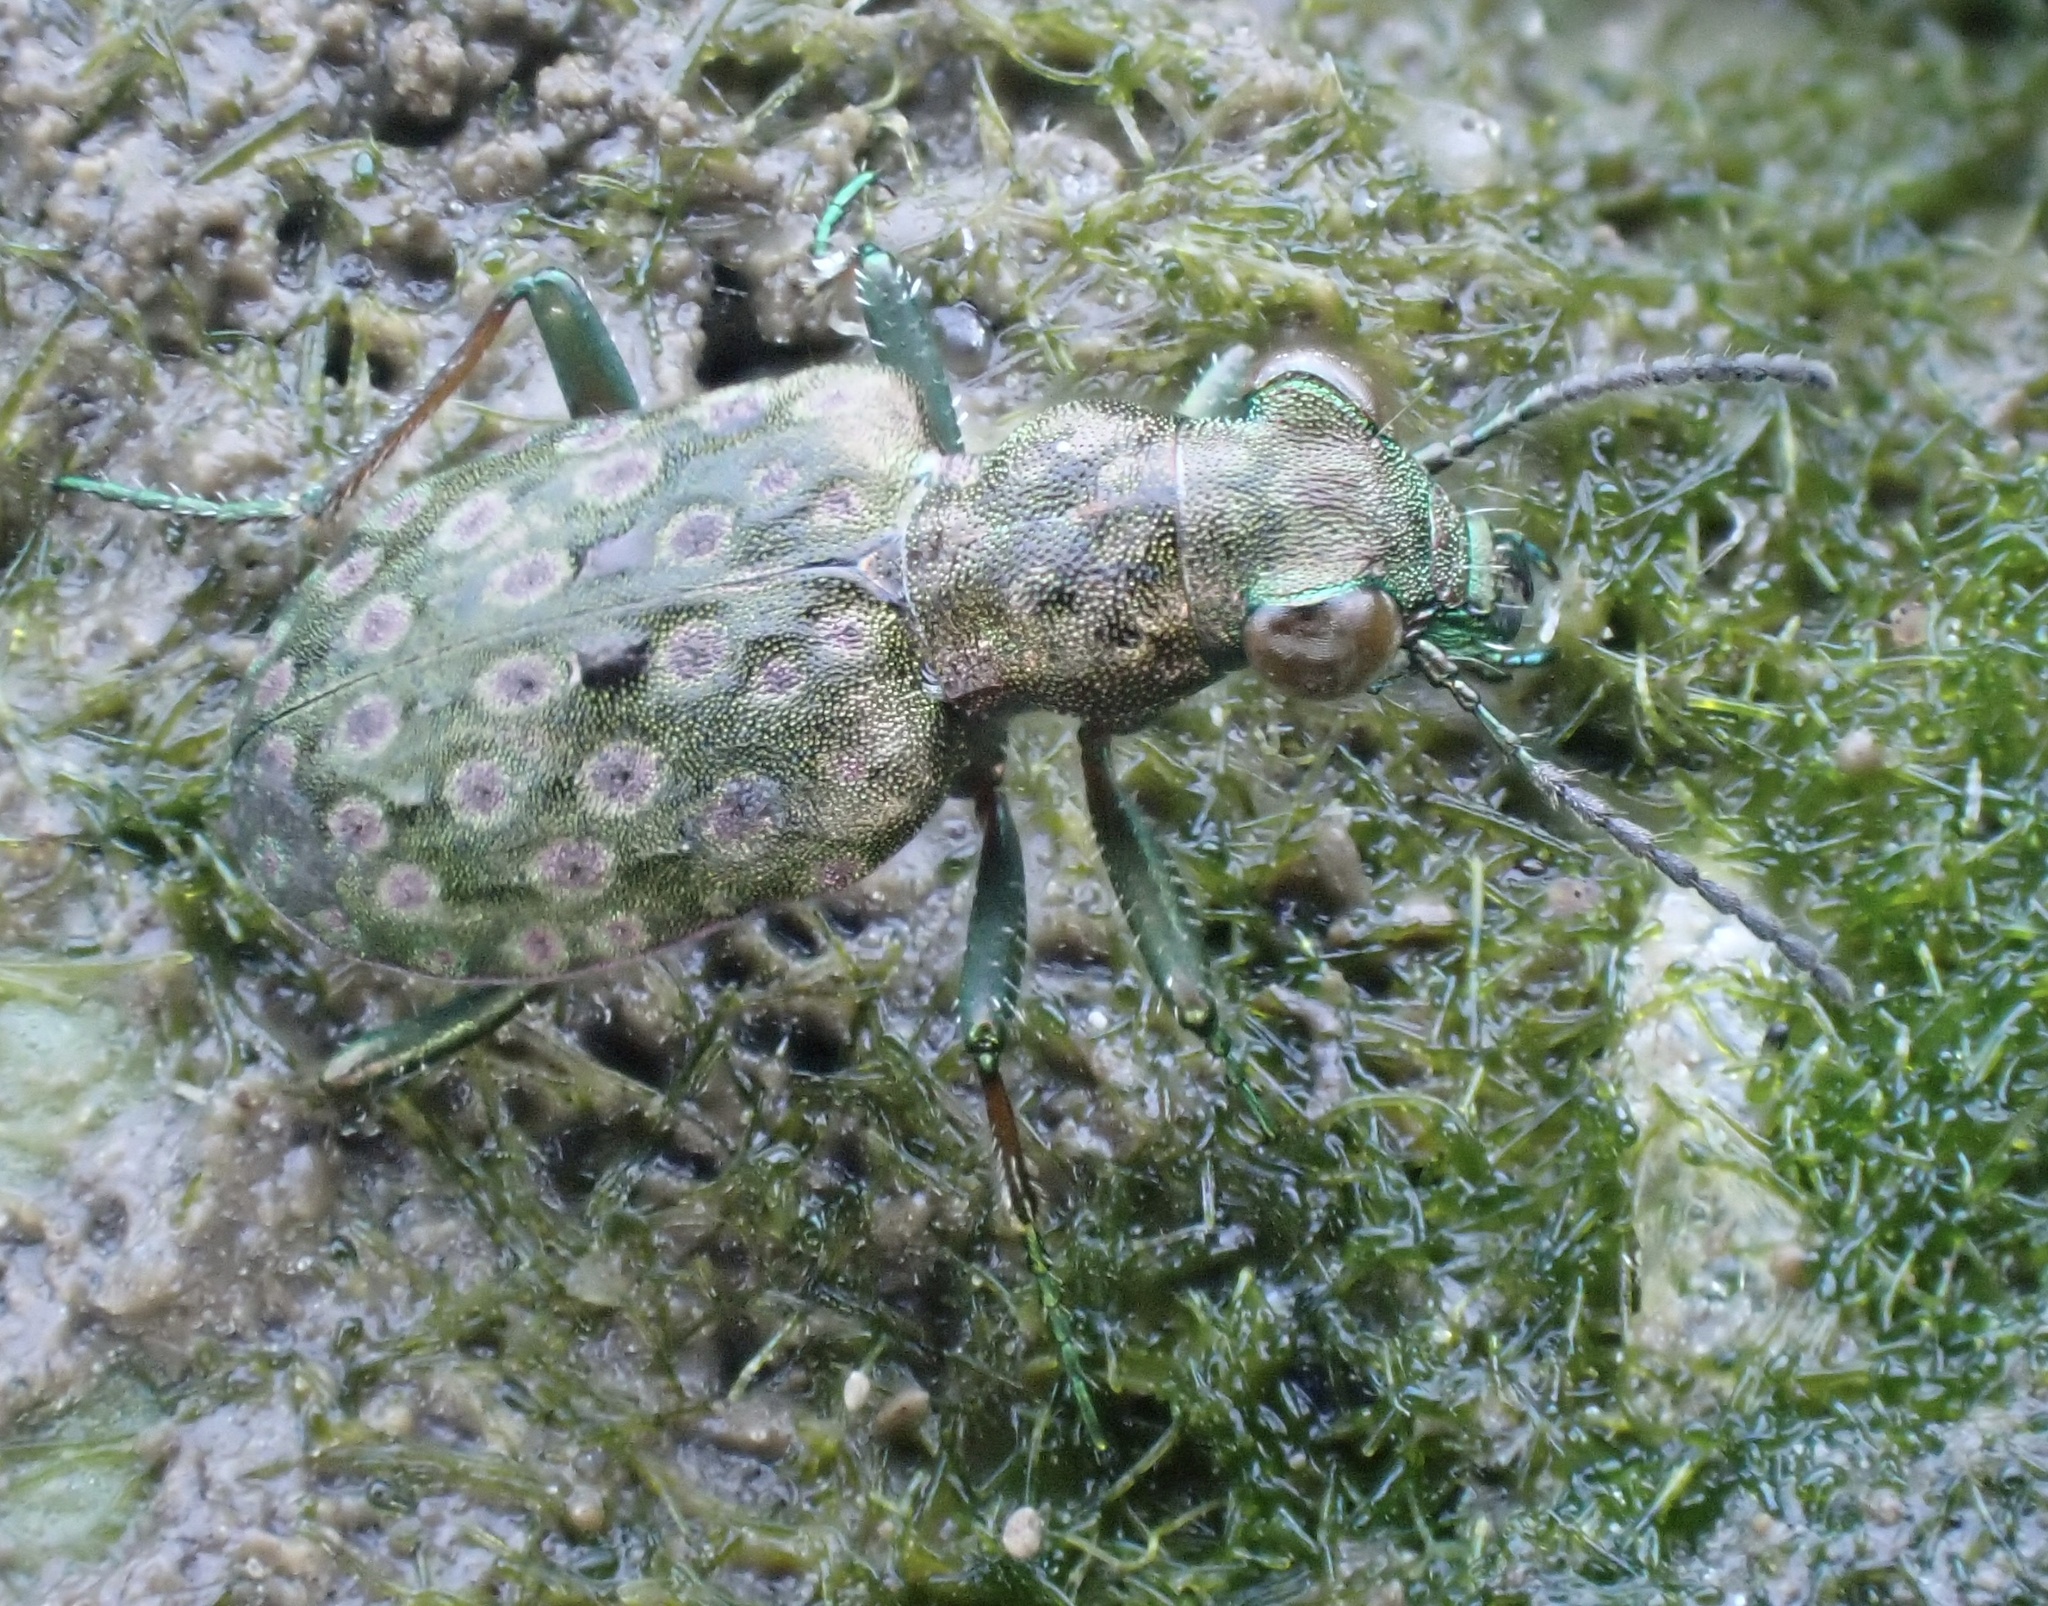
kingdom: Animalia
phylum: Arthropoda
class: Insecta
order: Coleoptera
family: Carabidae
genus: Elaphrus
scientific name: Elaphrus riparius
